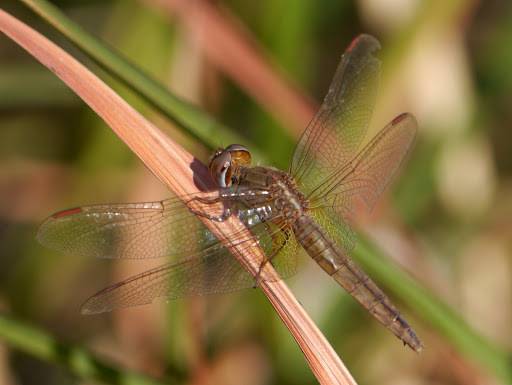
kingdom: Animalia
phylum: Arthropoda
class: Insecta
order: Odonata
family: Libellulidae
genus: Crocothemis
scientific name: Crocothemis erythraea
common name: Scarlet dragonfly
